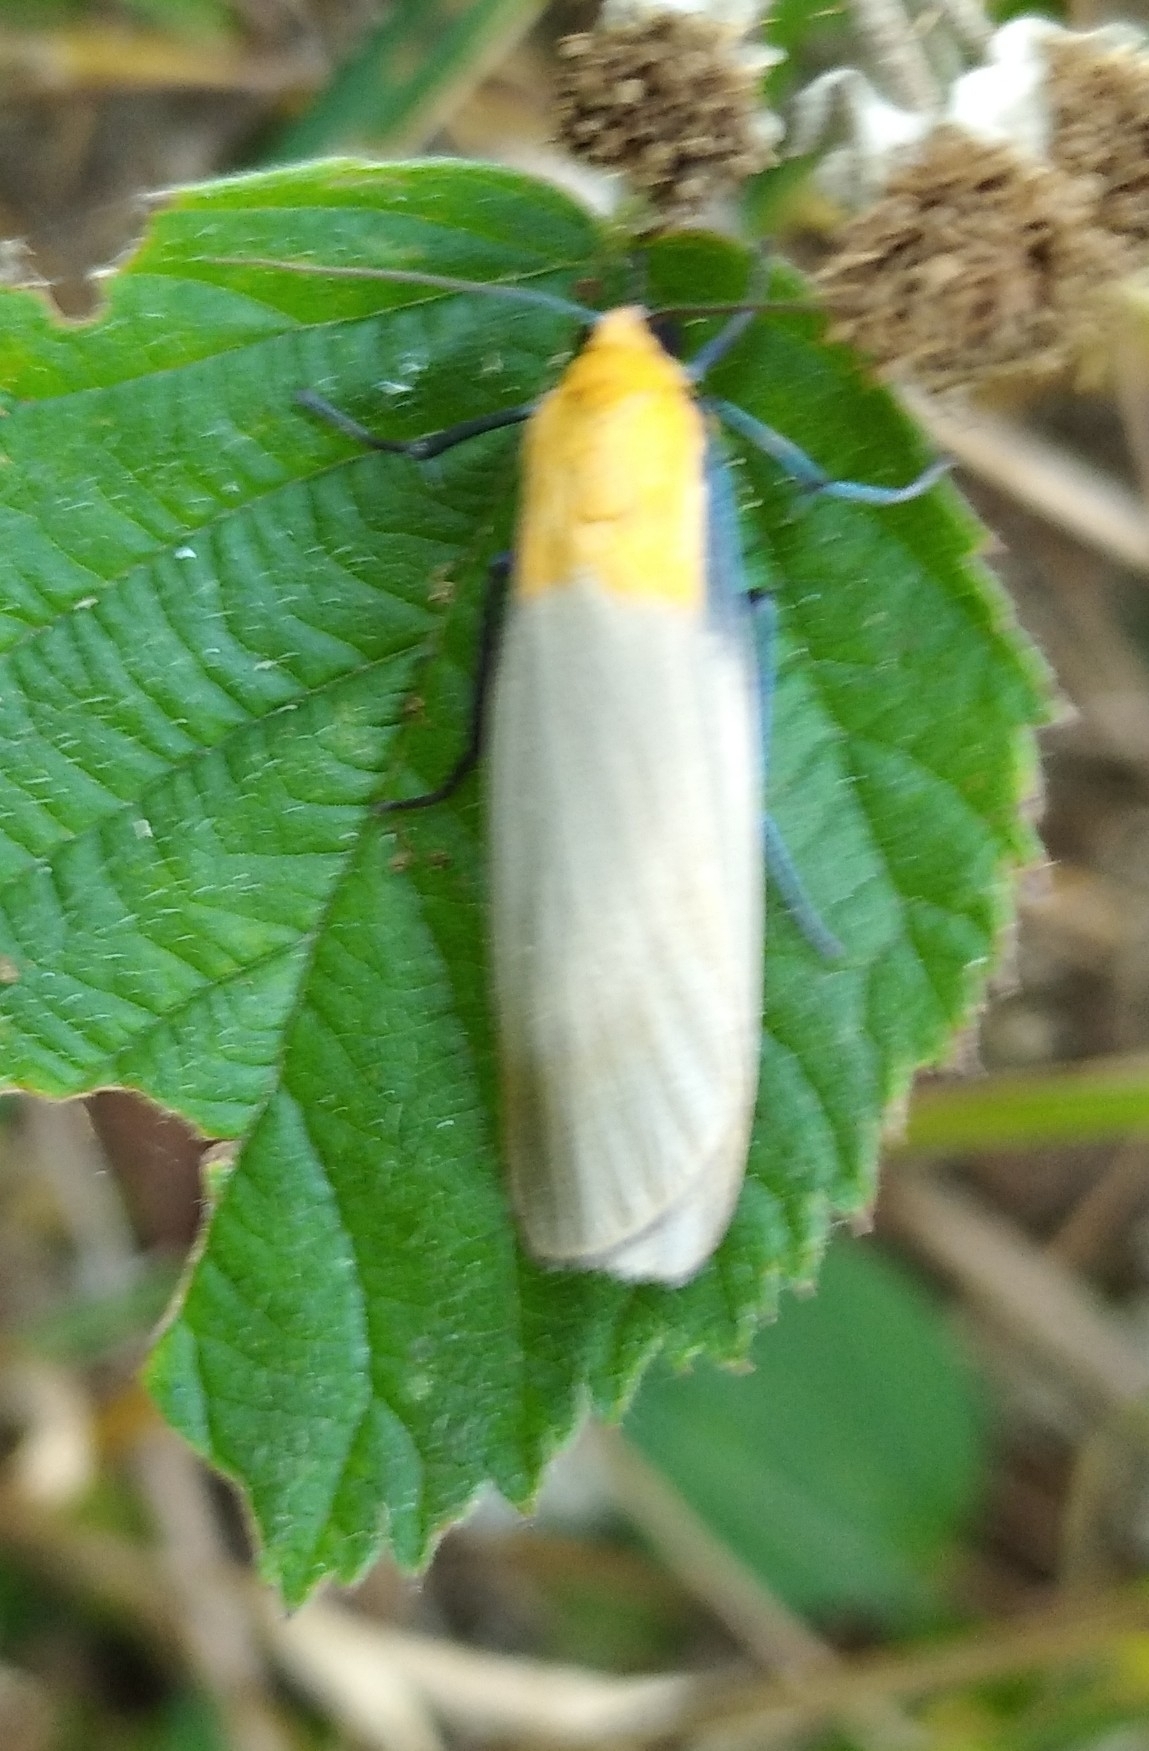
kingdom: Animalia
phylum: Arthropoda
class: Insecta
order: Lepidoptera
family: Erebidae
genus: Lithosia
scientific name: Lithosia quadra
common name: Four-spotted footman
